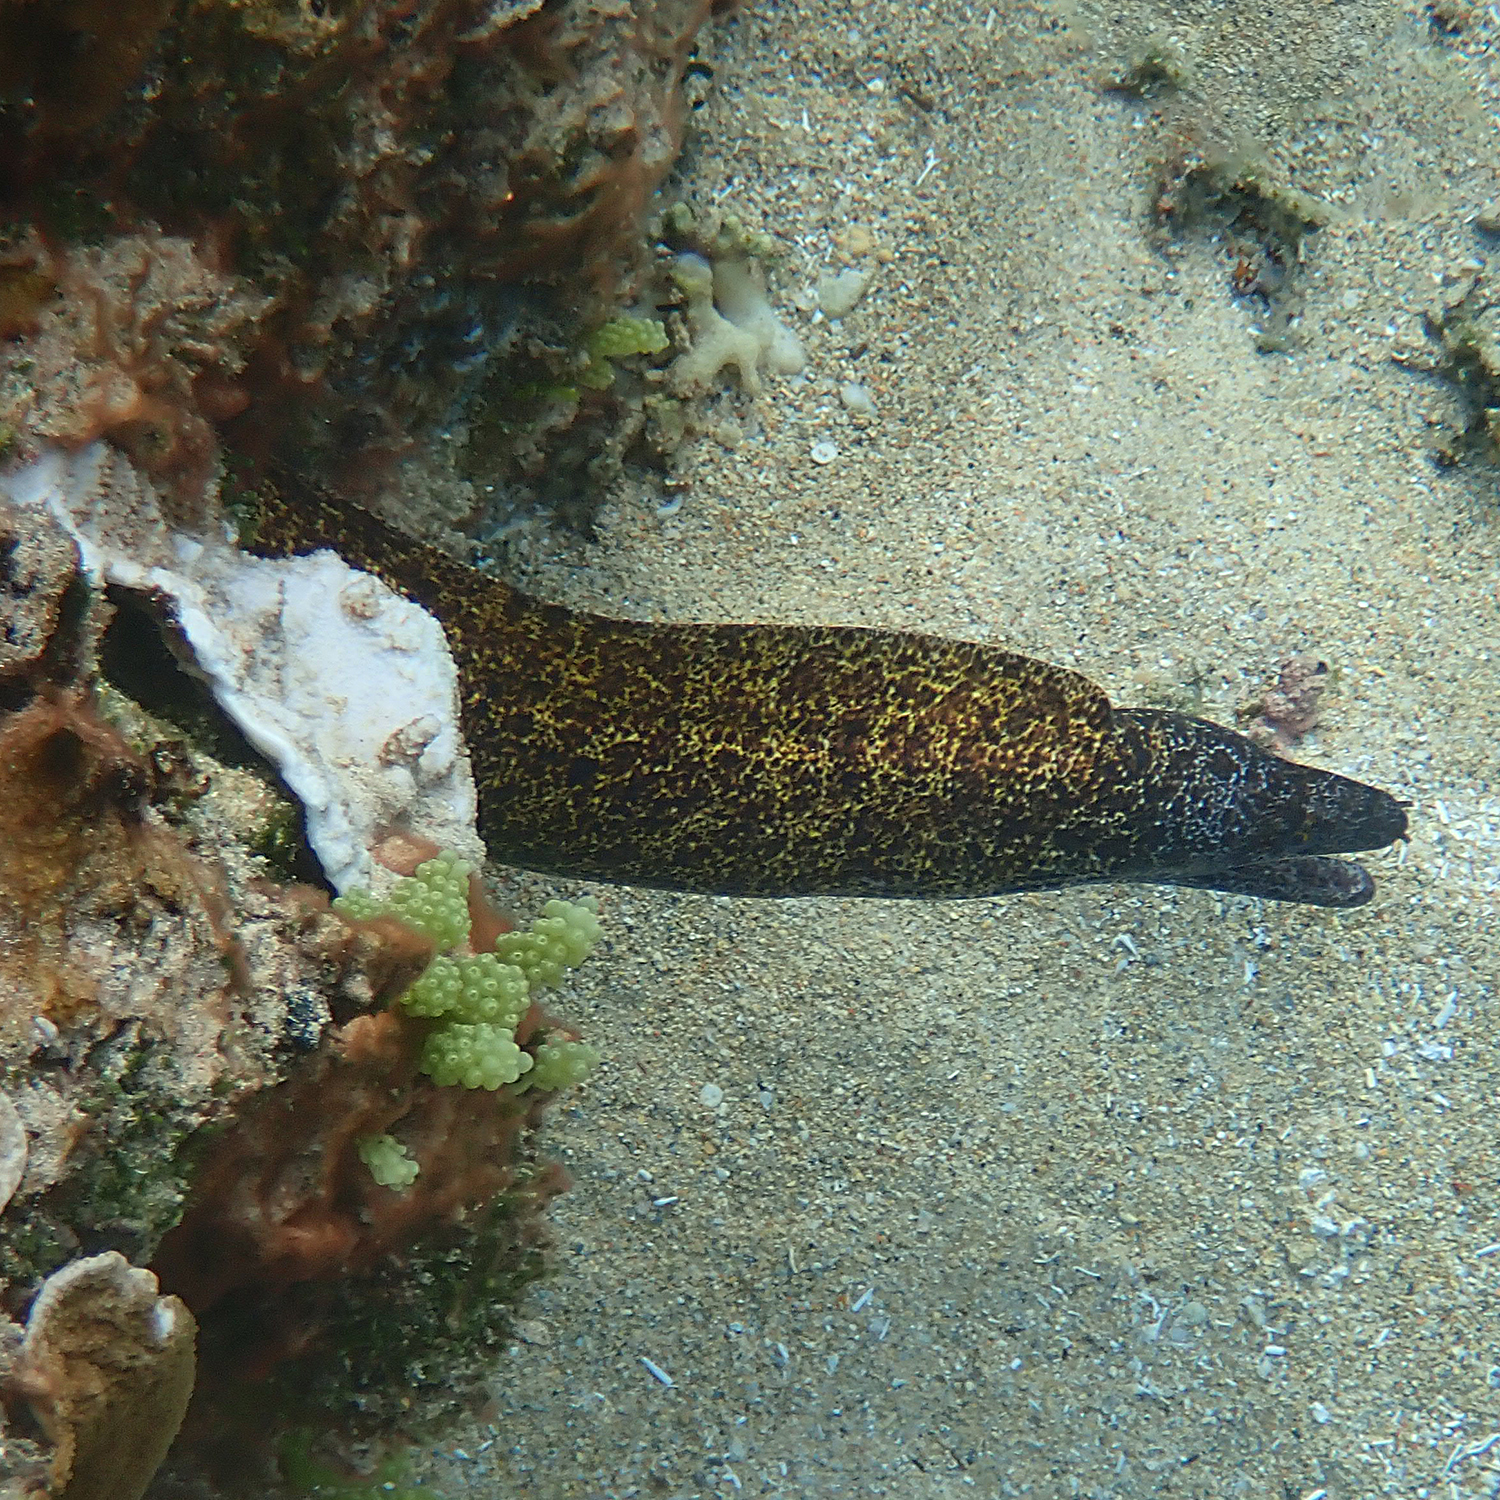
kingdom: Animalia
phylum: Chordata
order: Anguilliformes
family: Muraenidae
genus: Gymnothorax
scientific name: Gymnothorax annasona
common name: Lord howe island moray
